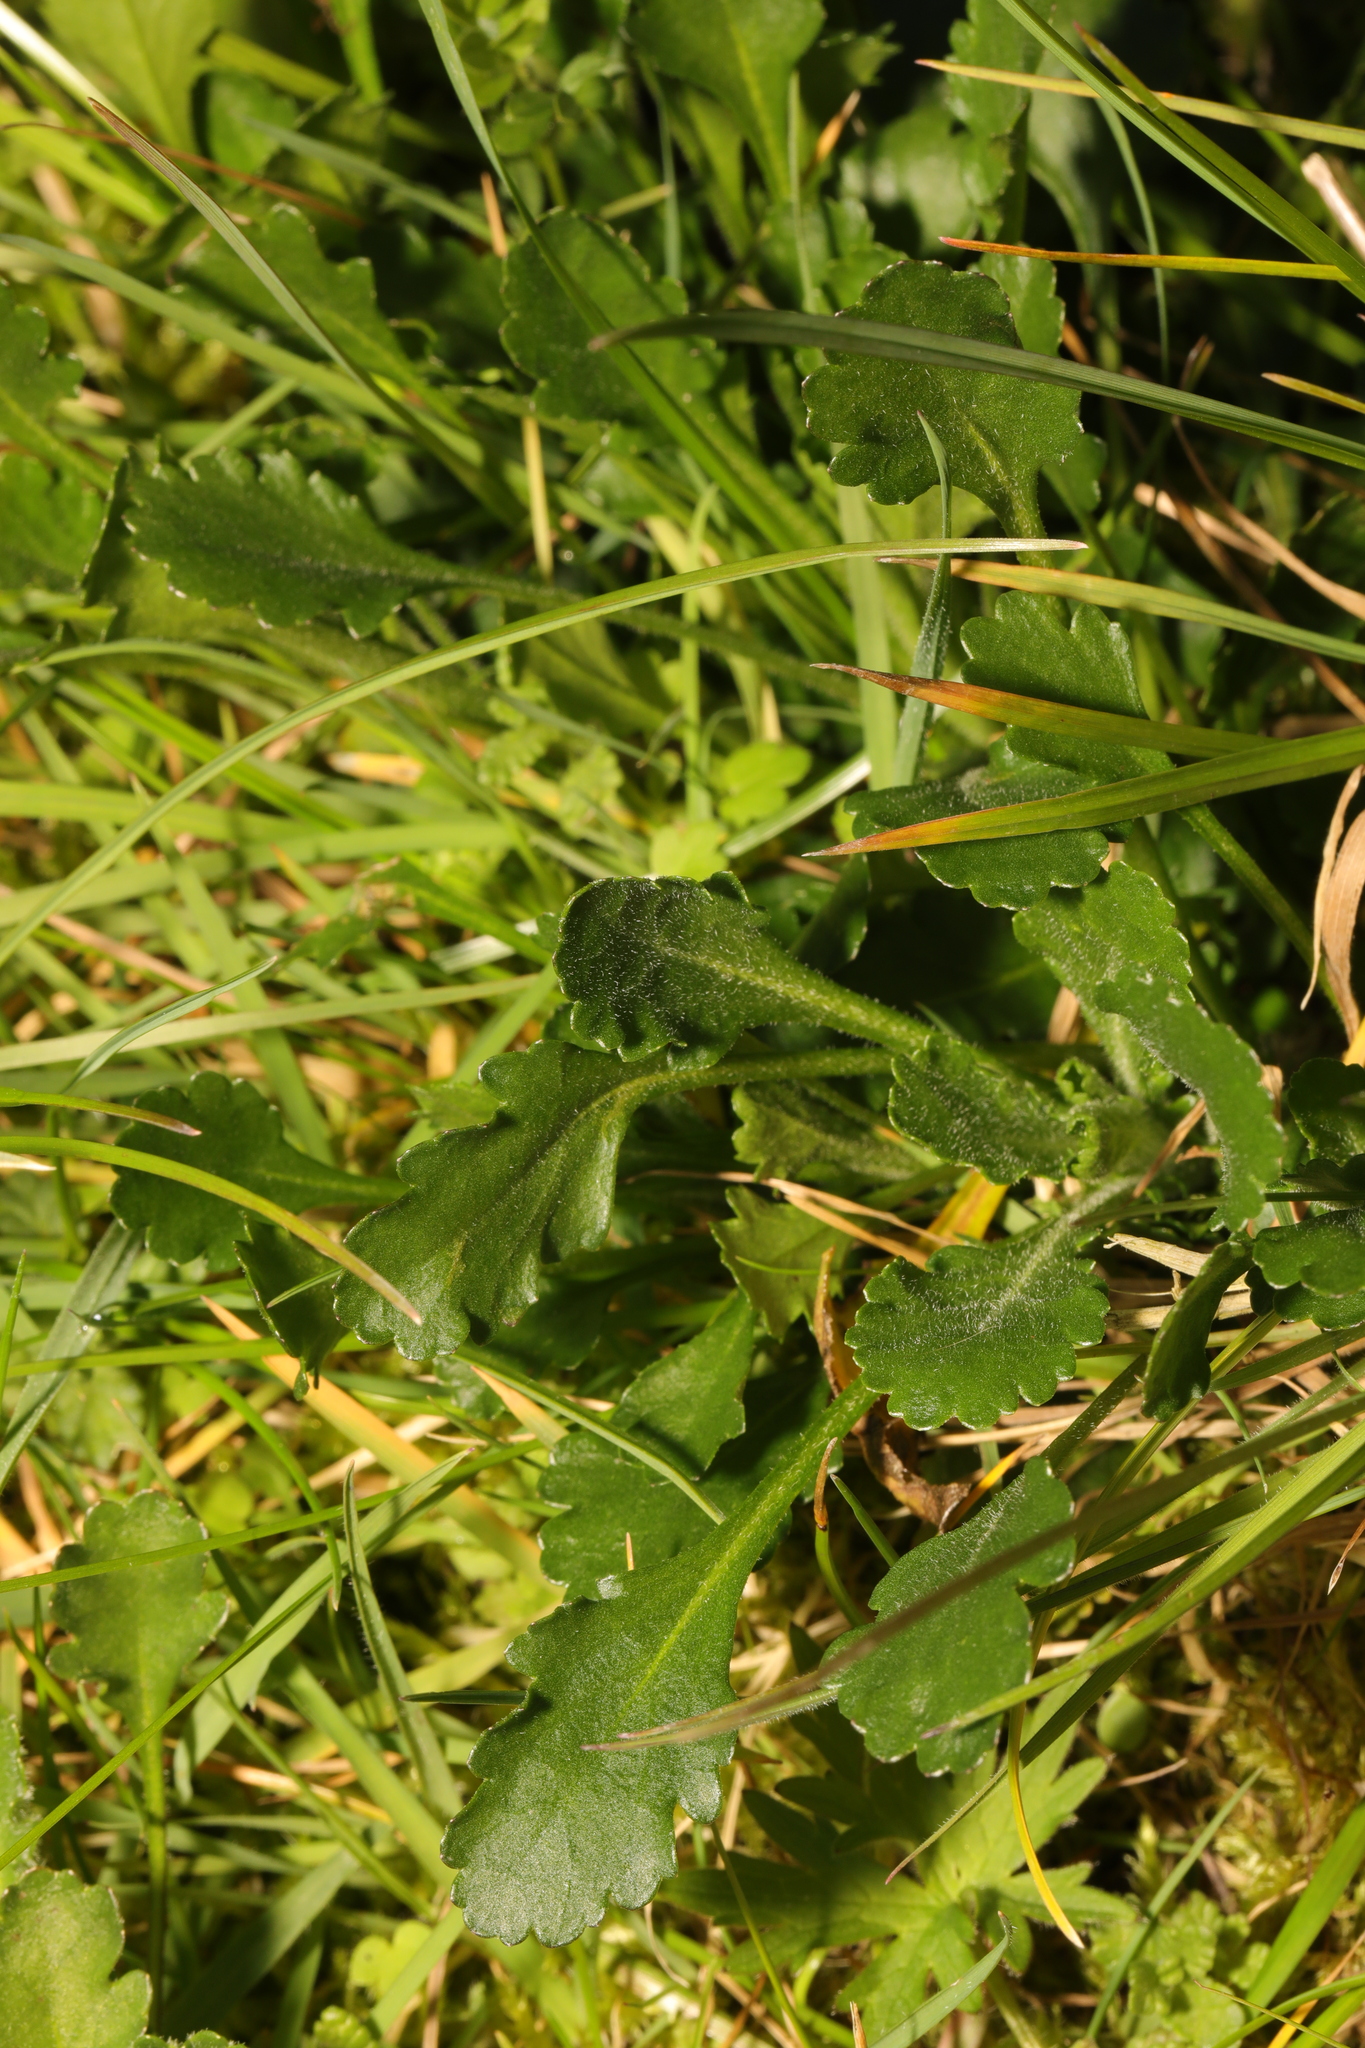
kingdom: Plantae
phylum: Tracheophyta
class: Magnoliopsida
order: Asterales
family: Asteraceae
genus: Leucanthemum
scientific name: Leucanthemum vulgare
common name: Oxeye daisy
